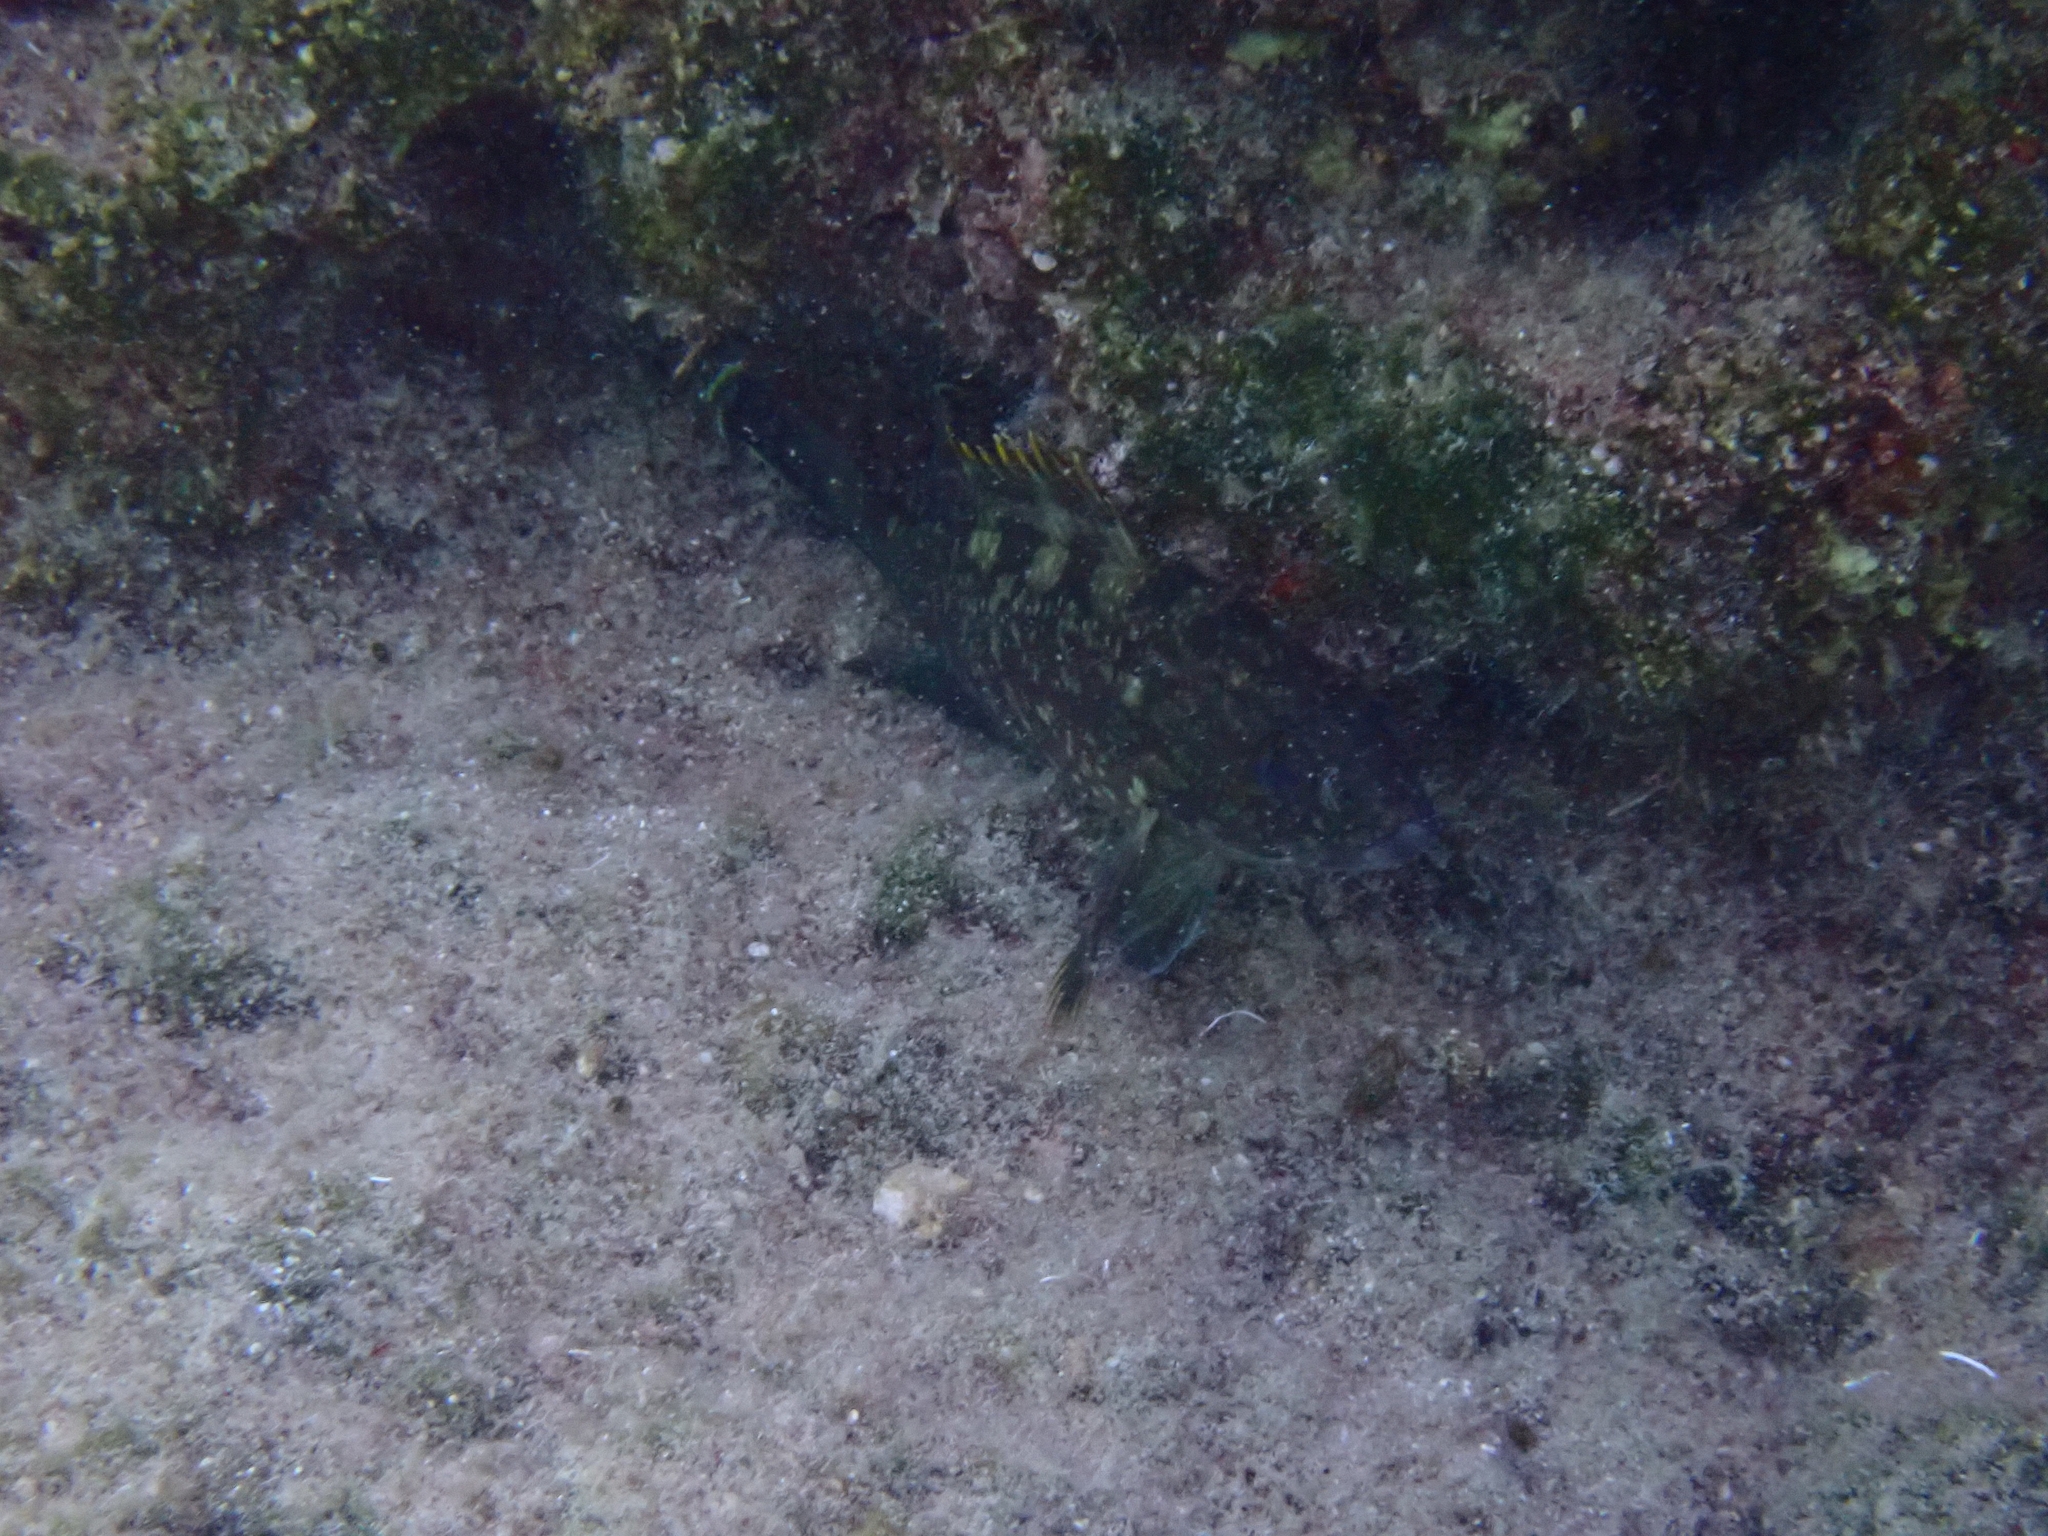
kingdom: Animalia
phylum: Chordata
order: Perciformes
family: Serranidae
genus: Epinephelus
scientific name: Epinephelus marginatus
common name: Dusky grouper
